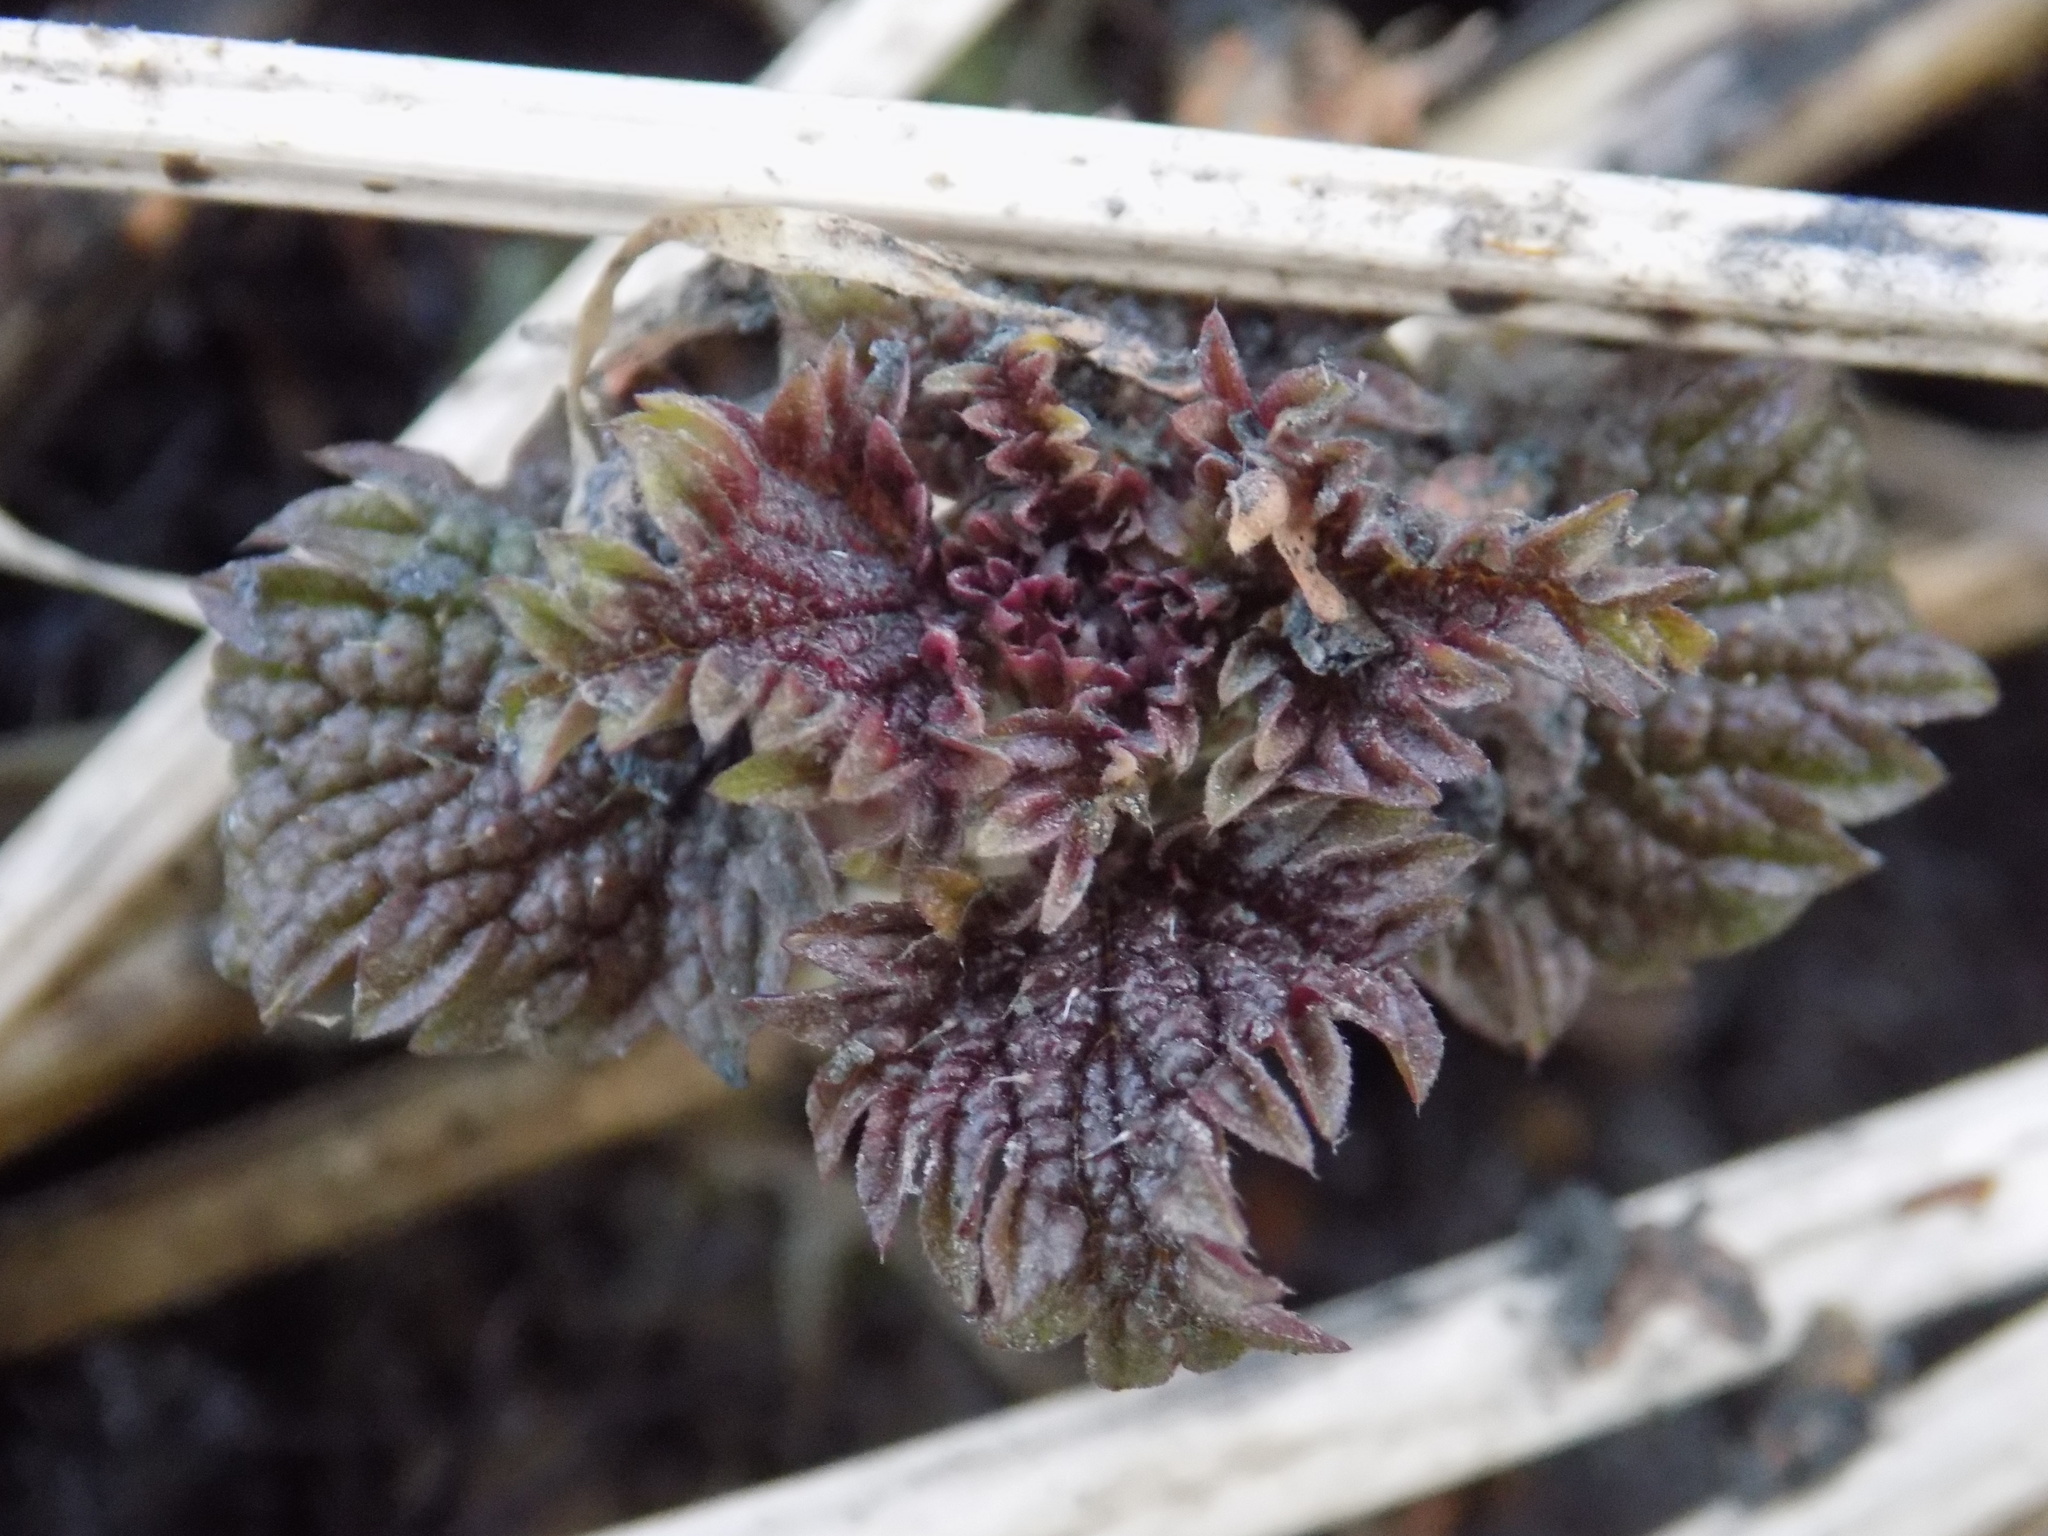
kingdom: Plantae
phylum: Tracheophyta
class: Magnoliopsida
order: Rosales
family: Urticaceae
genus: Urtica
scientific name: Urtica dioica
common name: Common nettle
